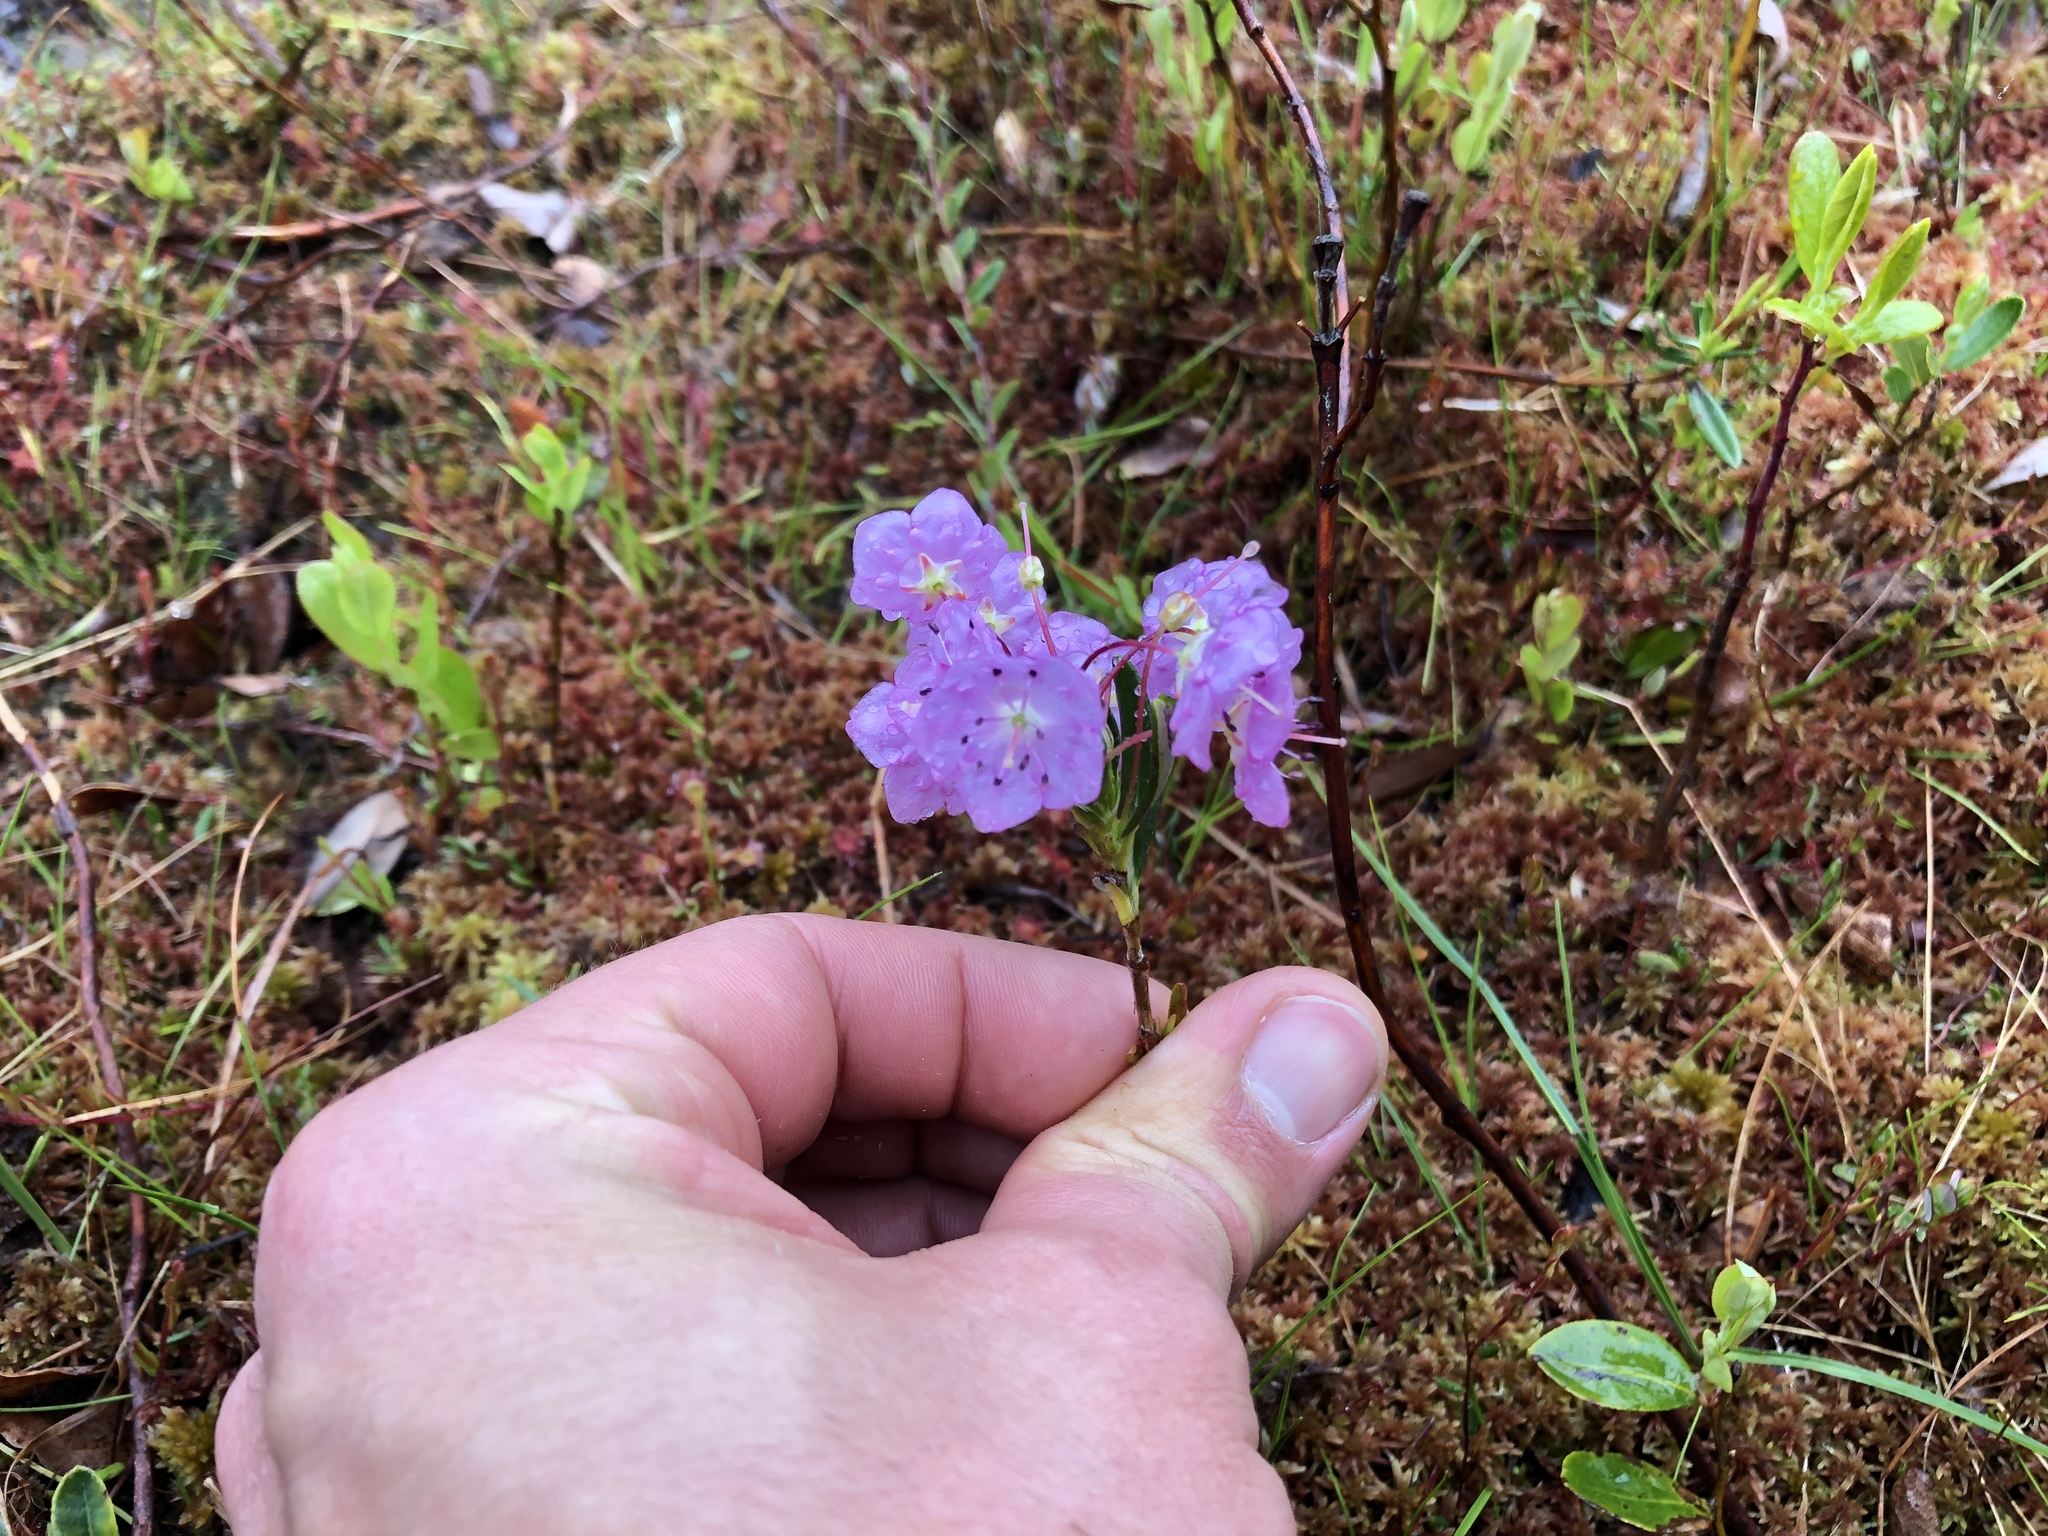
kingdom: Plantae
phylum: Tracheophyta
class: Magnoliopsida
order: Ericales
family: Ericaceae
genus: Kalmia
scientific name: Kalmia polifolia
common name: Bog-laurel
